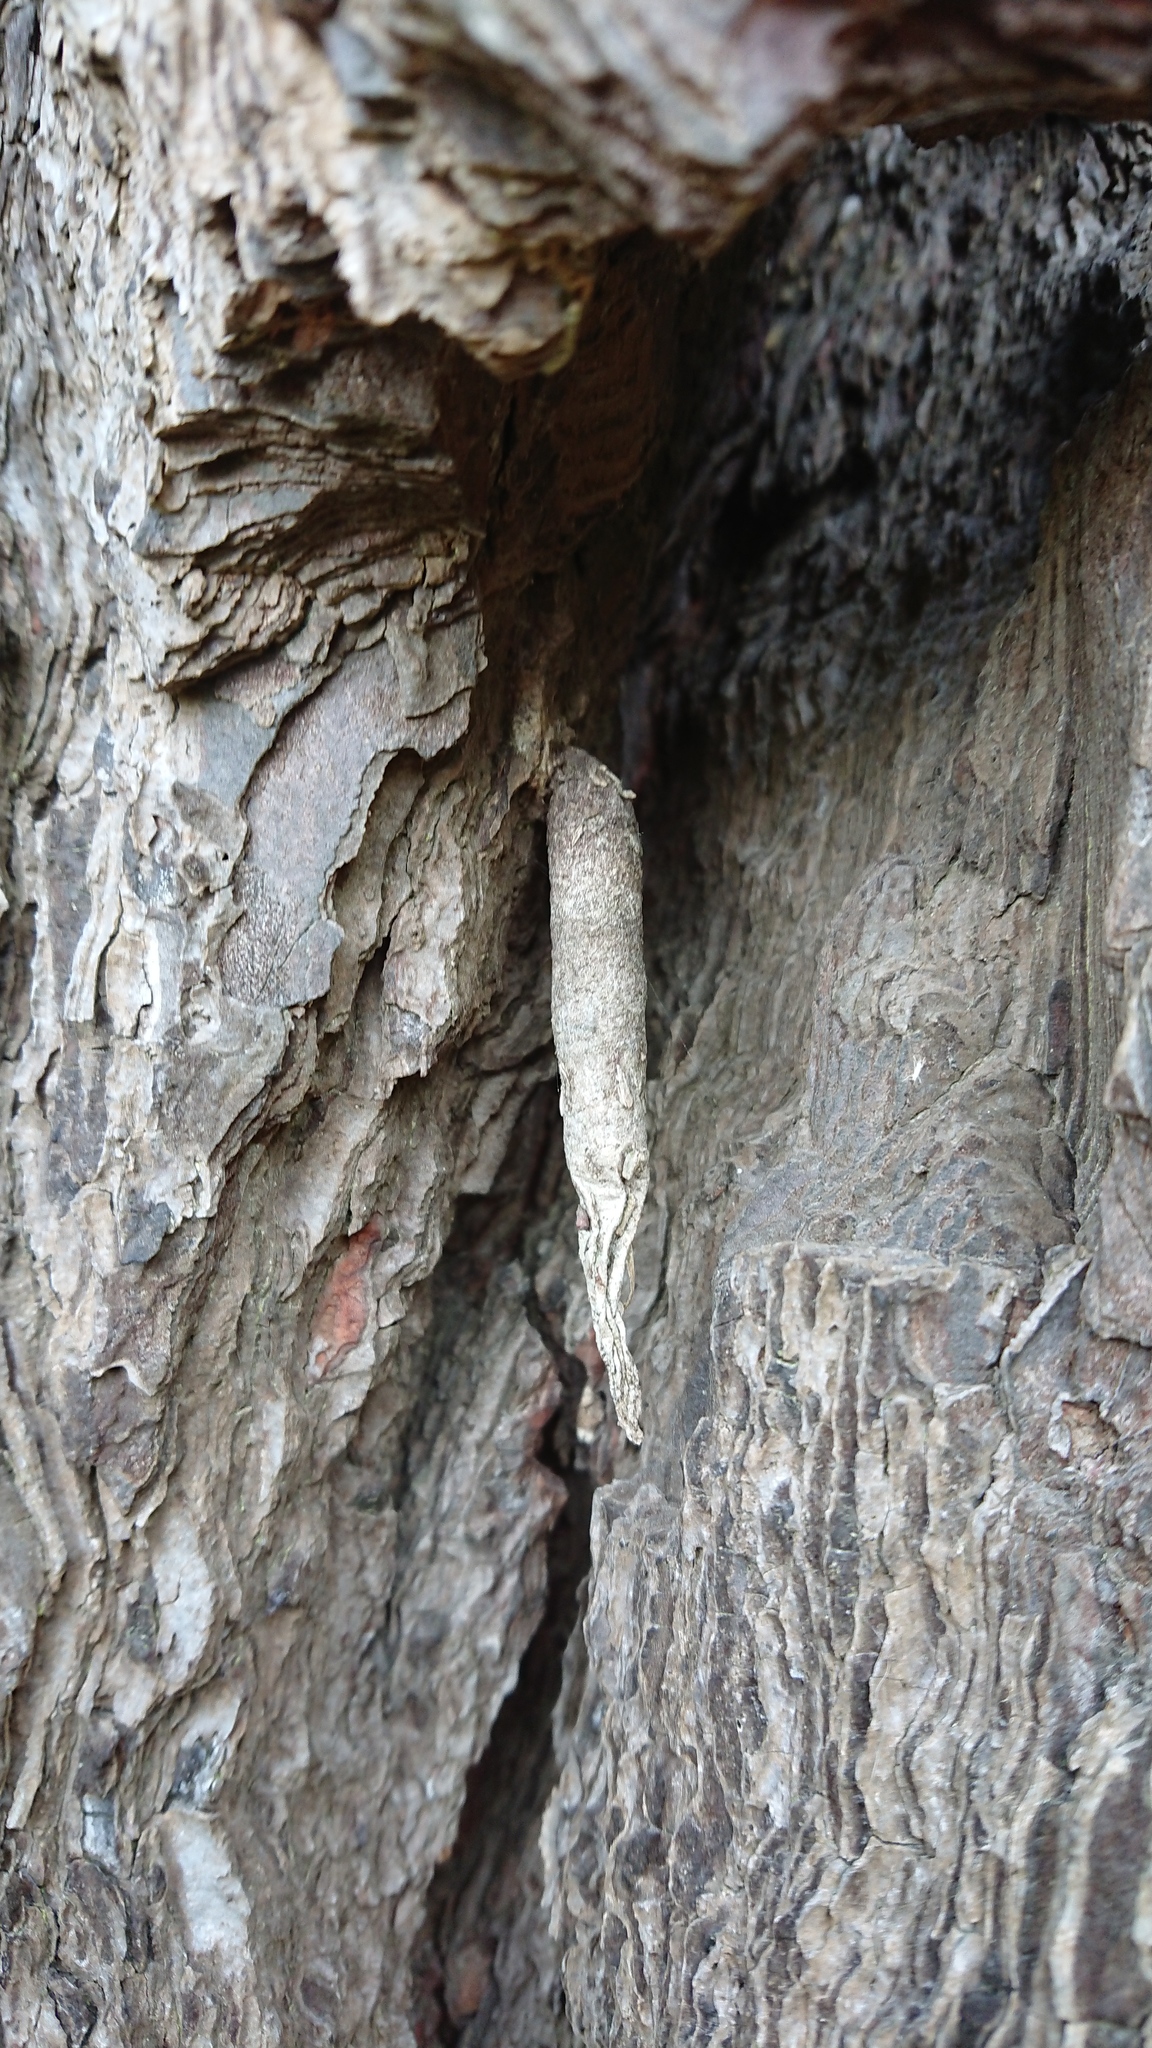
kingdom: Animalia
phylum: Arthropoda
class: Insecta
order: Lepidoptera
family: Psychidae
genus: Liothula
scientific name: Liothula omnivora
